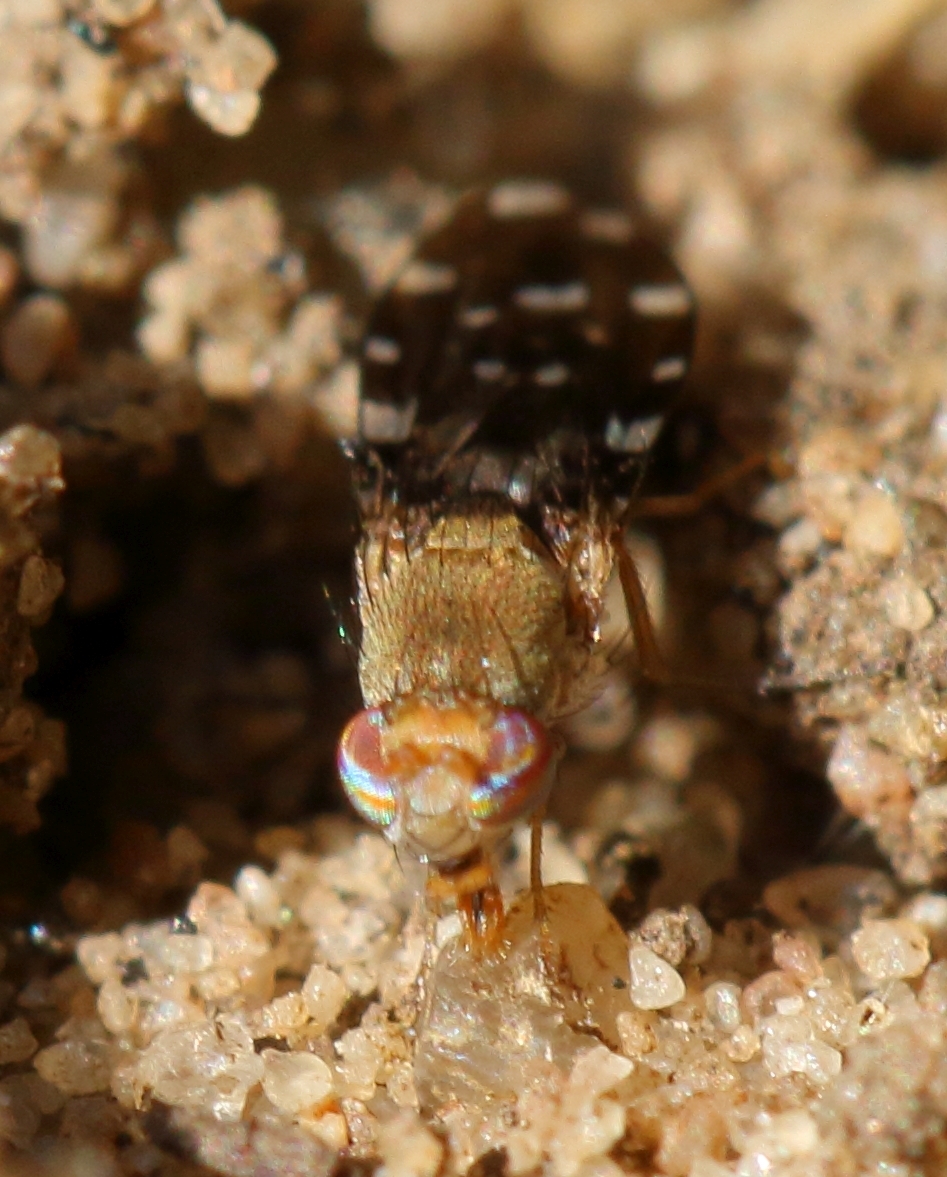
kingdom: Animalia
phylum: Arthropoda
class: Insecta
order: Diptera
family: Ephydridae
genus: Actocetor
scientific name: Actocetor indicus
